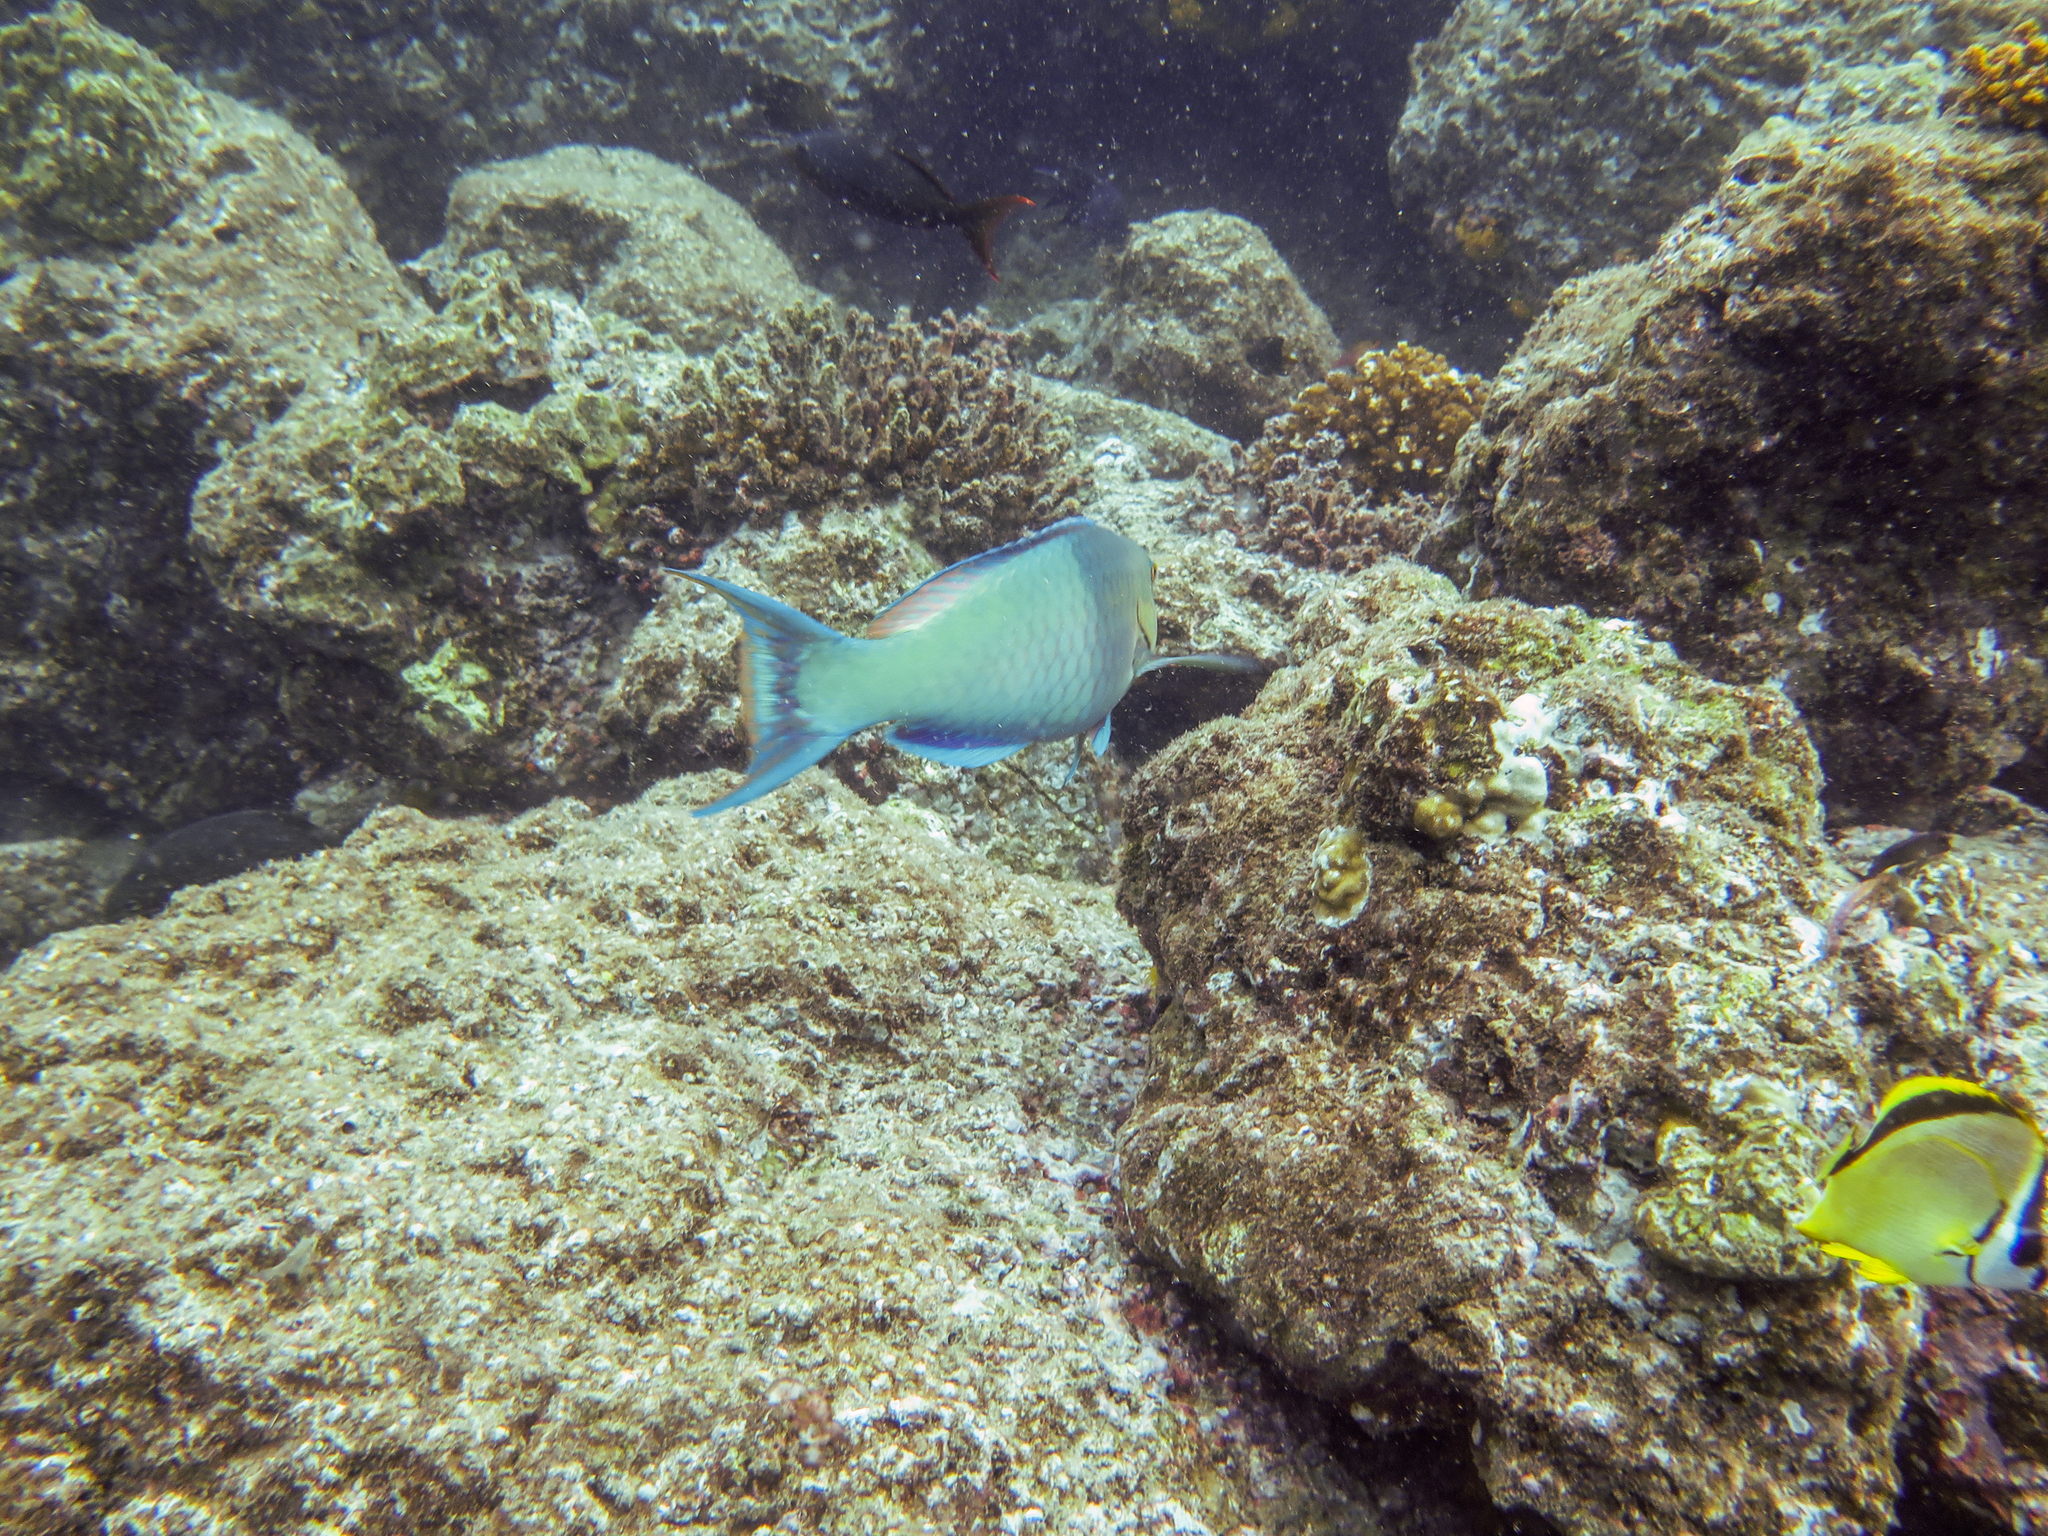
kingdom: Animalia
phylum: Chordata
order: Perciformes
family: Chaetodontidae
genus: Johnrandallia
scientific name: Johnrandallia nigrirostris
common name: Barberfish
